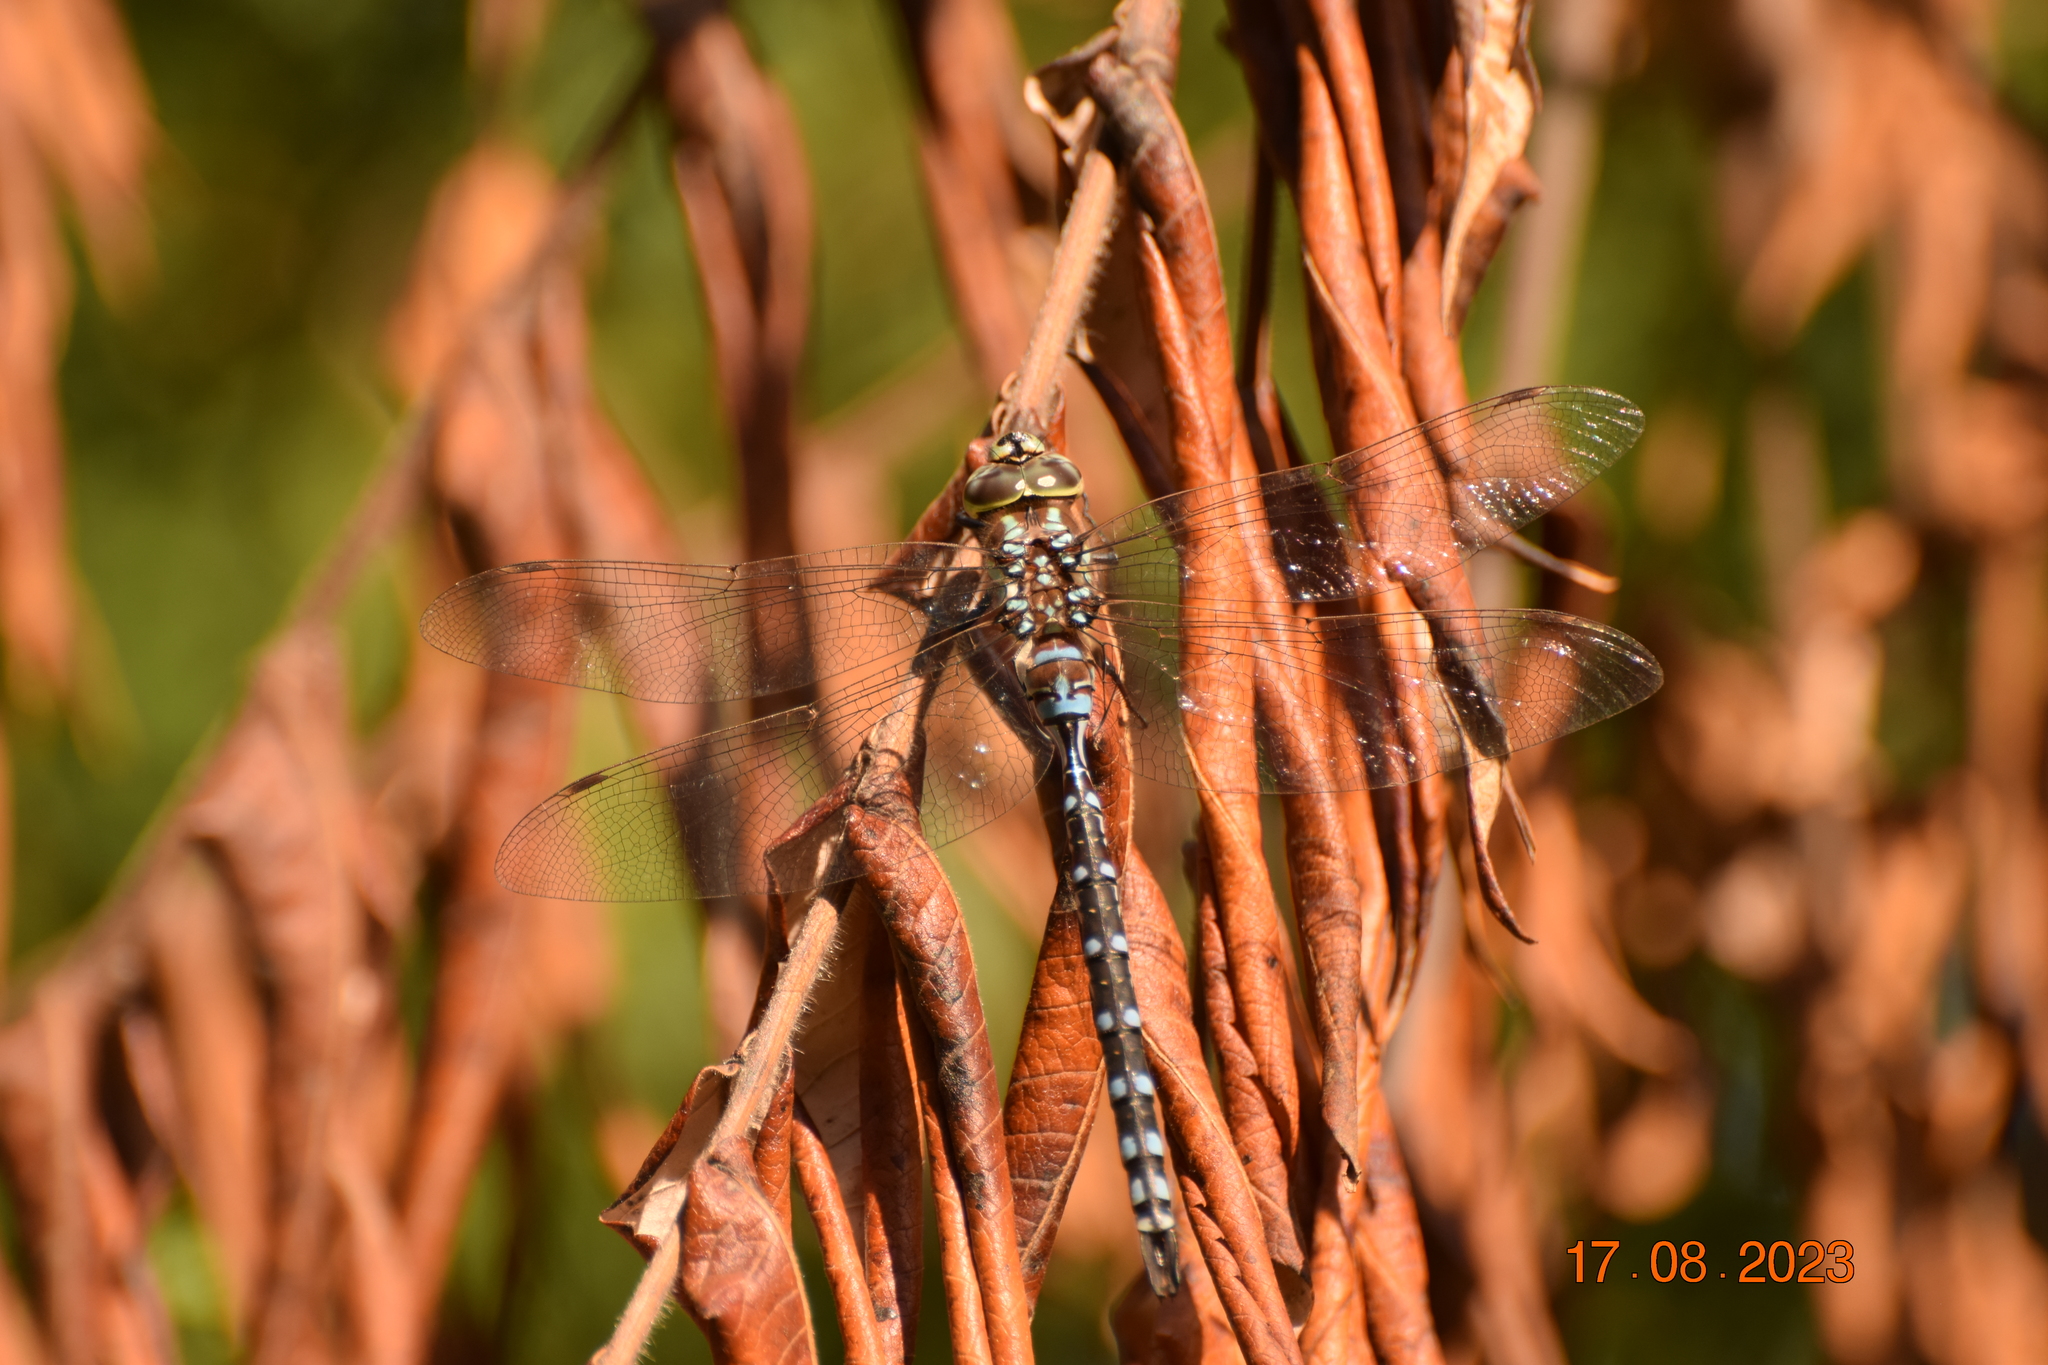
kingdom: Animalia
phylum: Arthropoda
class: Insecta
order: Odonata
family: Aeshnidae
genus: Aeshna
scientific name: Aeshna constricta
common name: Lance-tipped darner
